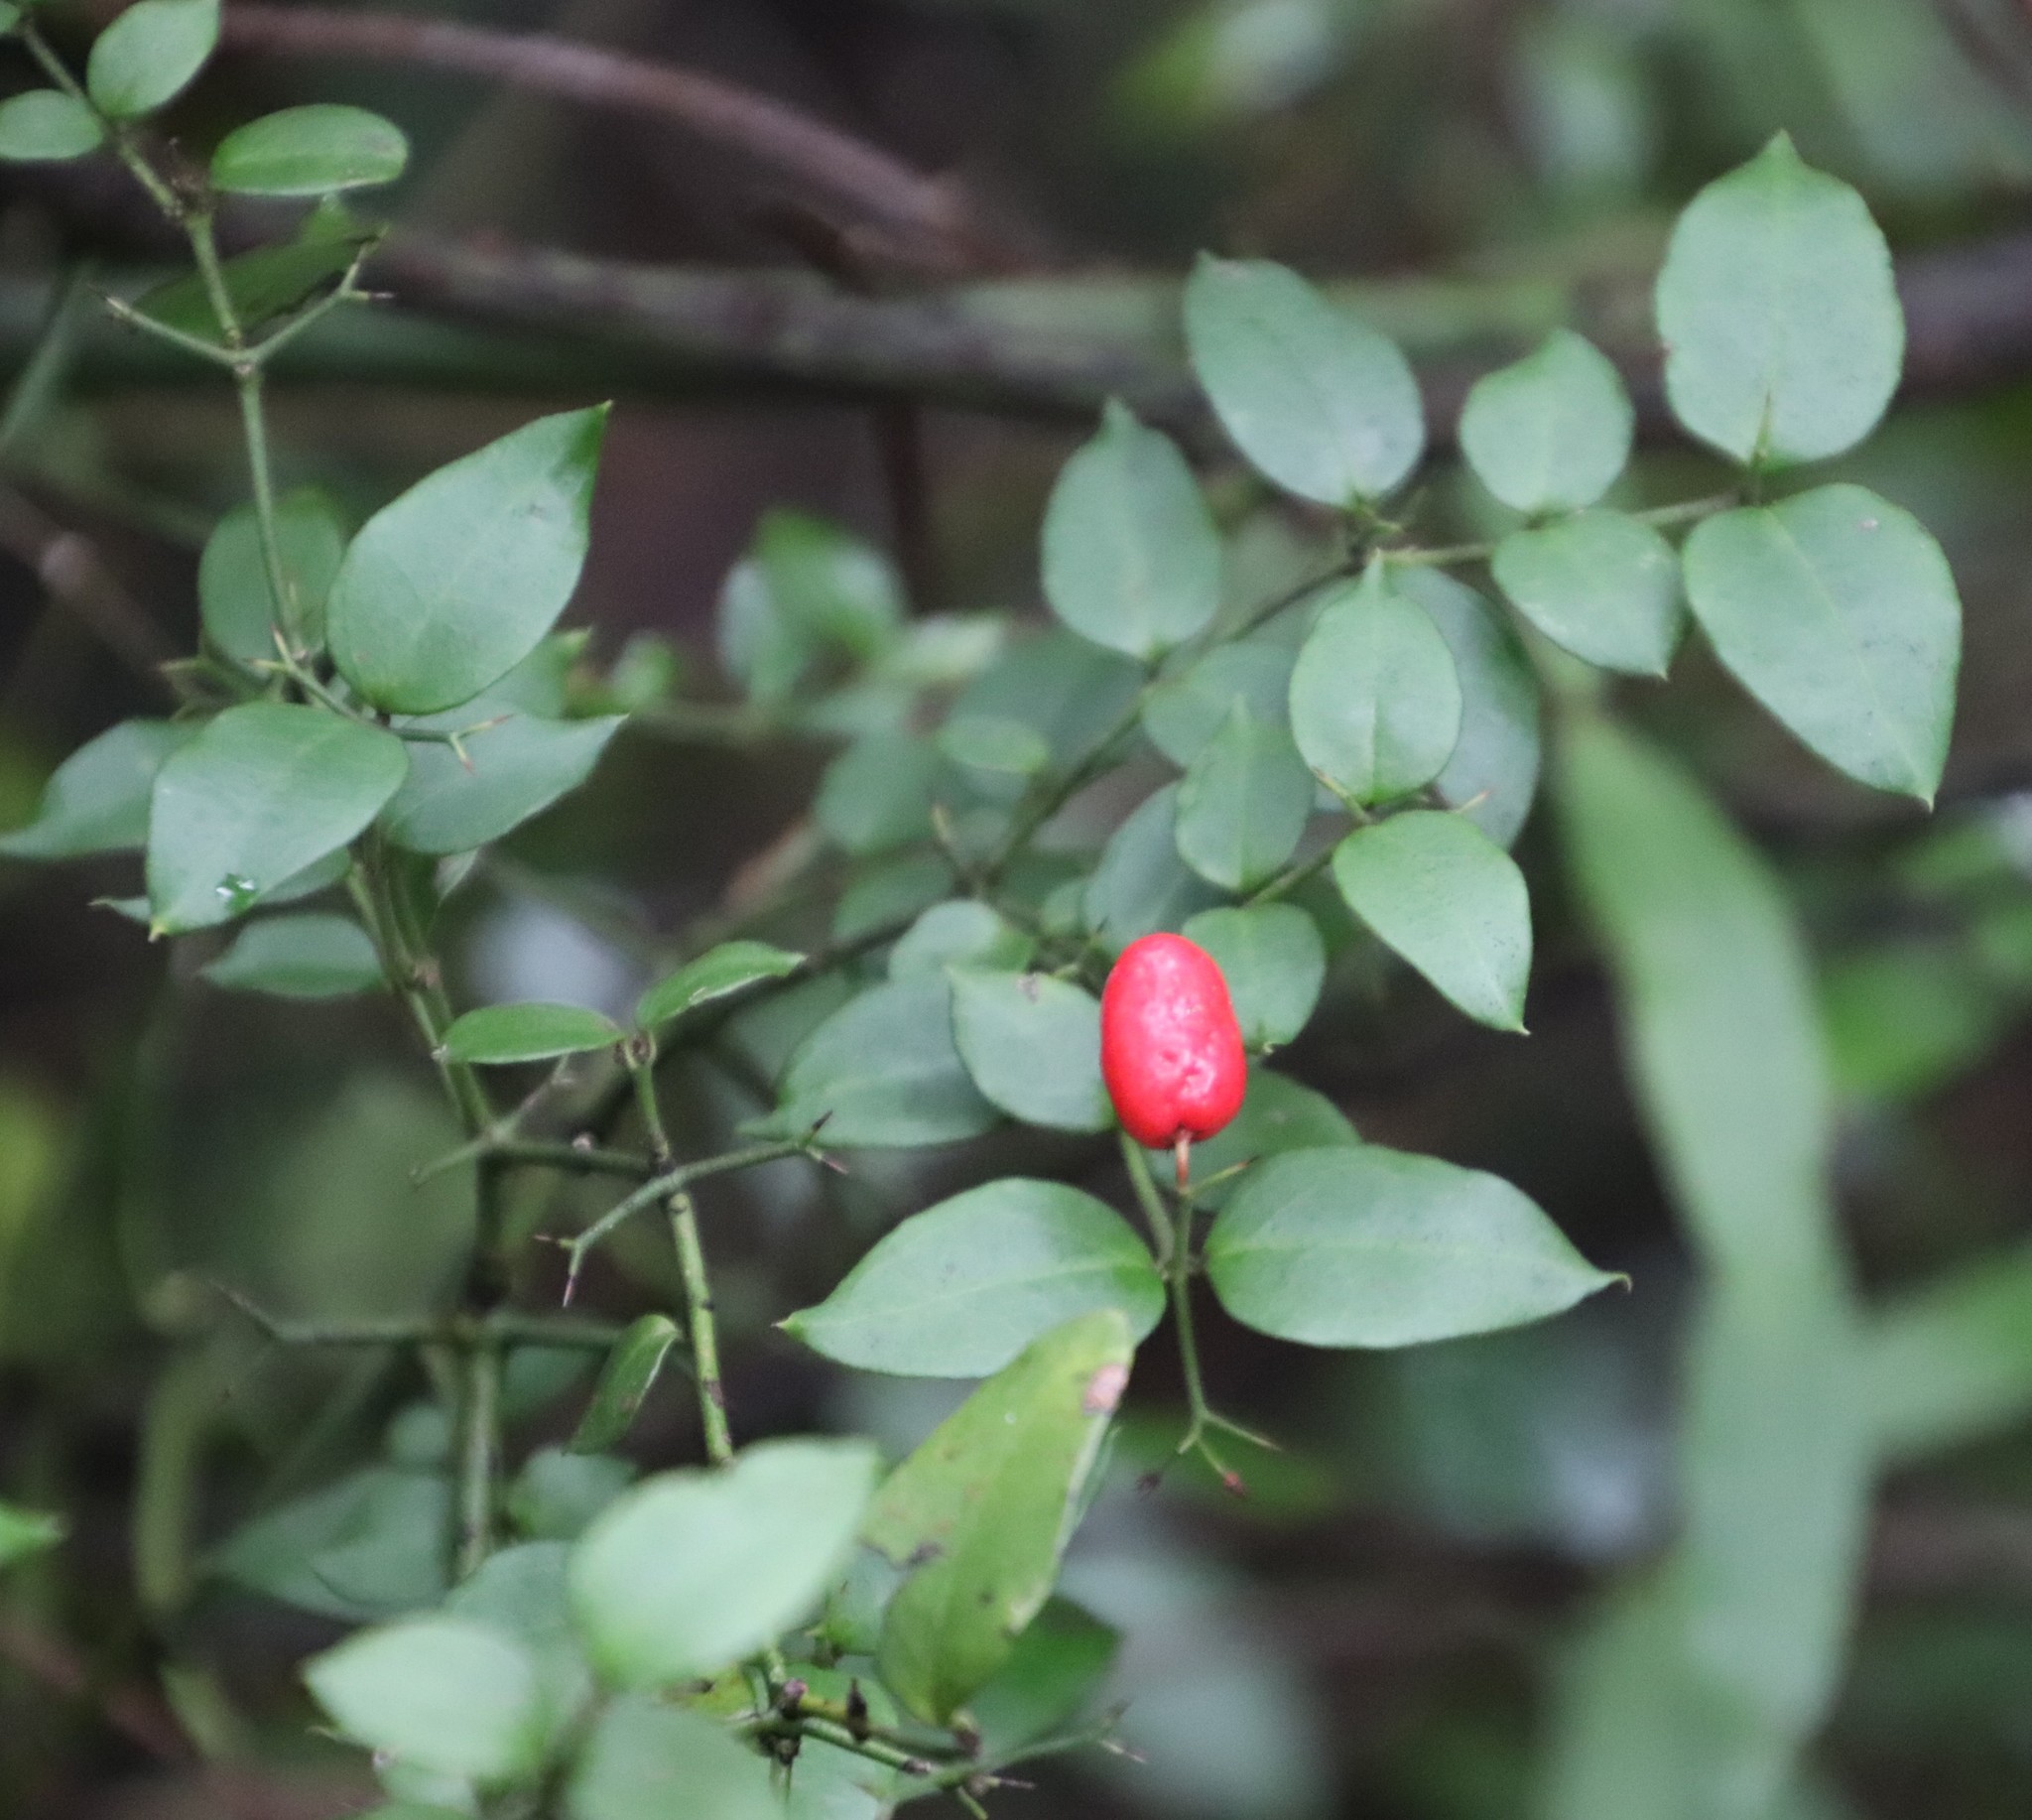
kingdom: Plantae
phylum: Tracheophyta
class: Magnoliopsida
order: Gentianales
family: Apocynaceae
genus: Carissa
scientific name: Carissa bispinosa
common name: Forest num-num
